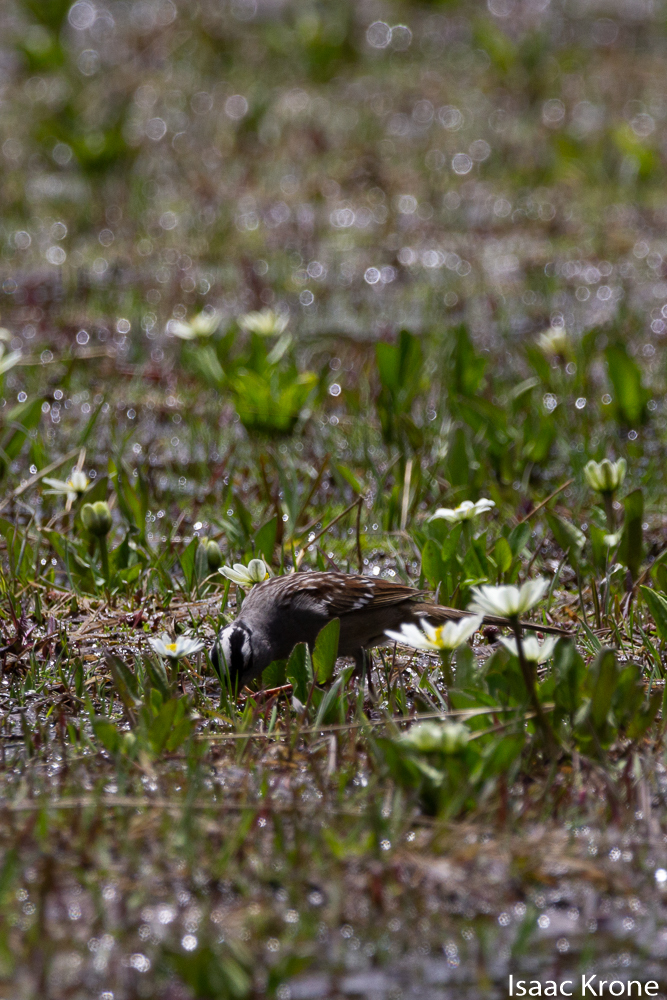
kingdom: Animalia
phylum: Chordata
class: Aves
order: Passeriformes
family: Passerellidae
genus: Zonotrichia
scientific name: Zonotrichia leucophrys
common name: White-crowned sparrow
